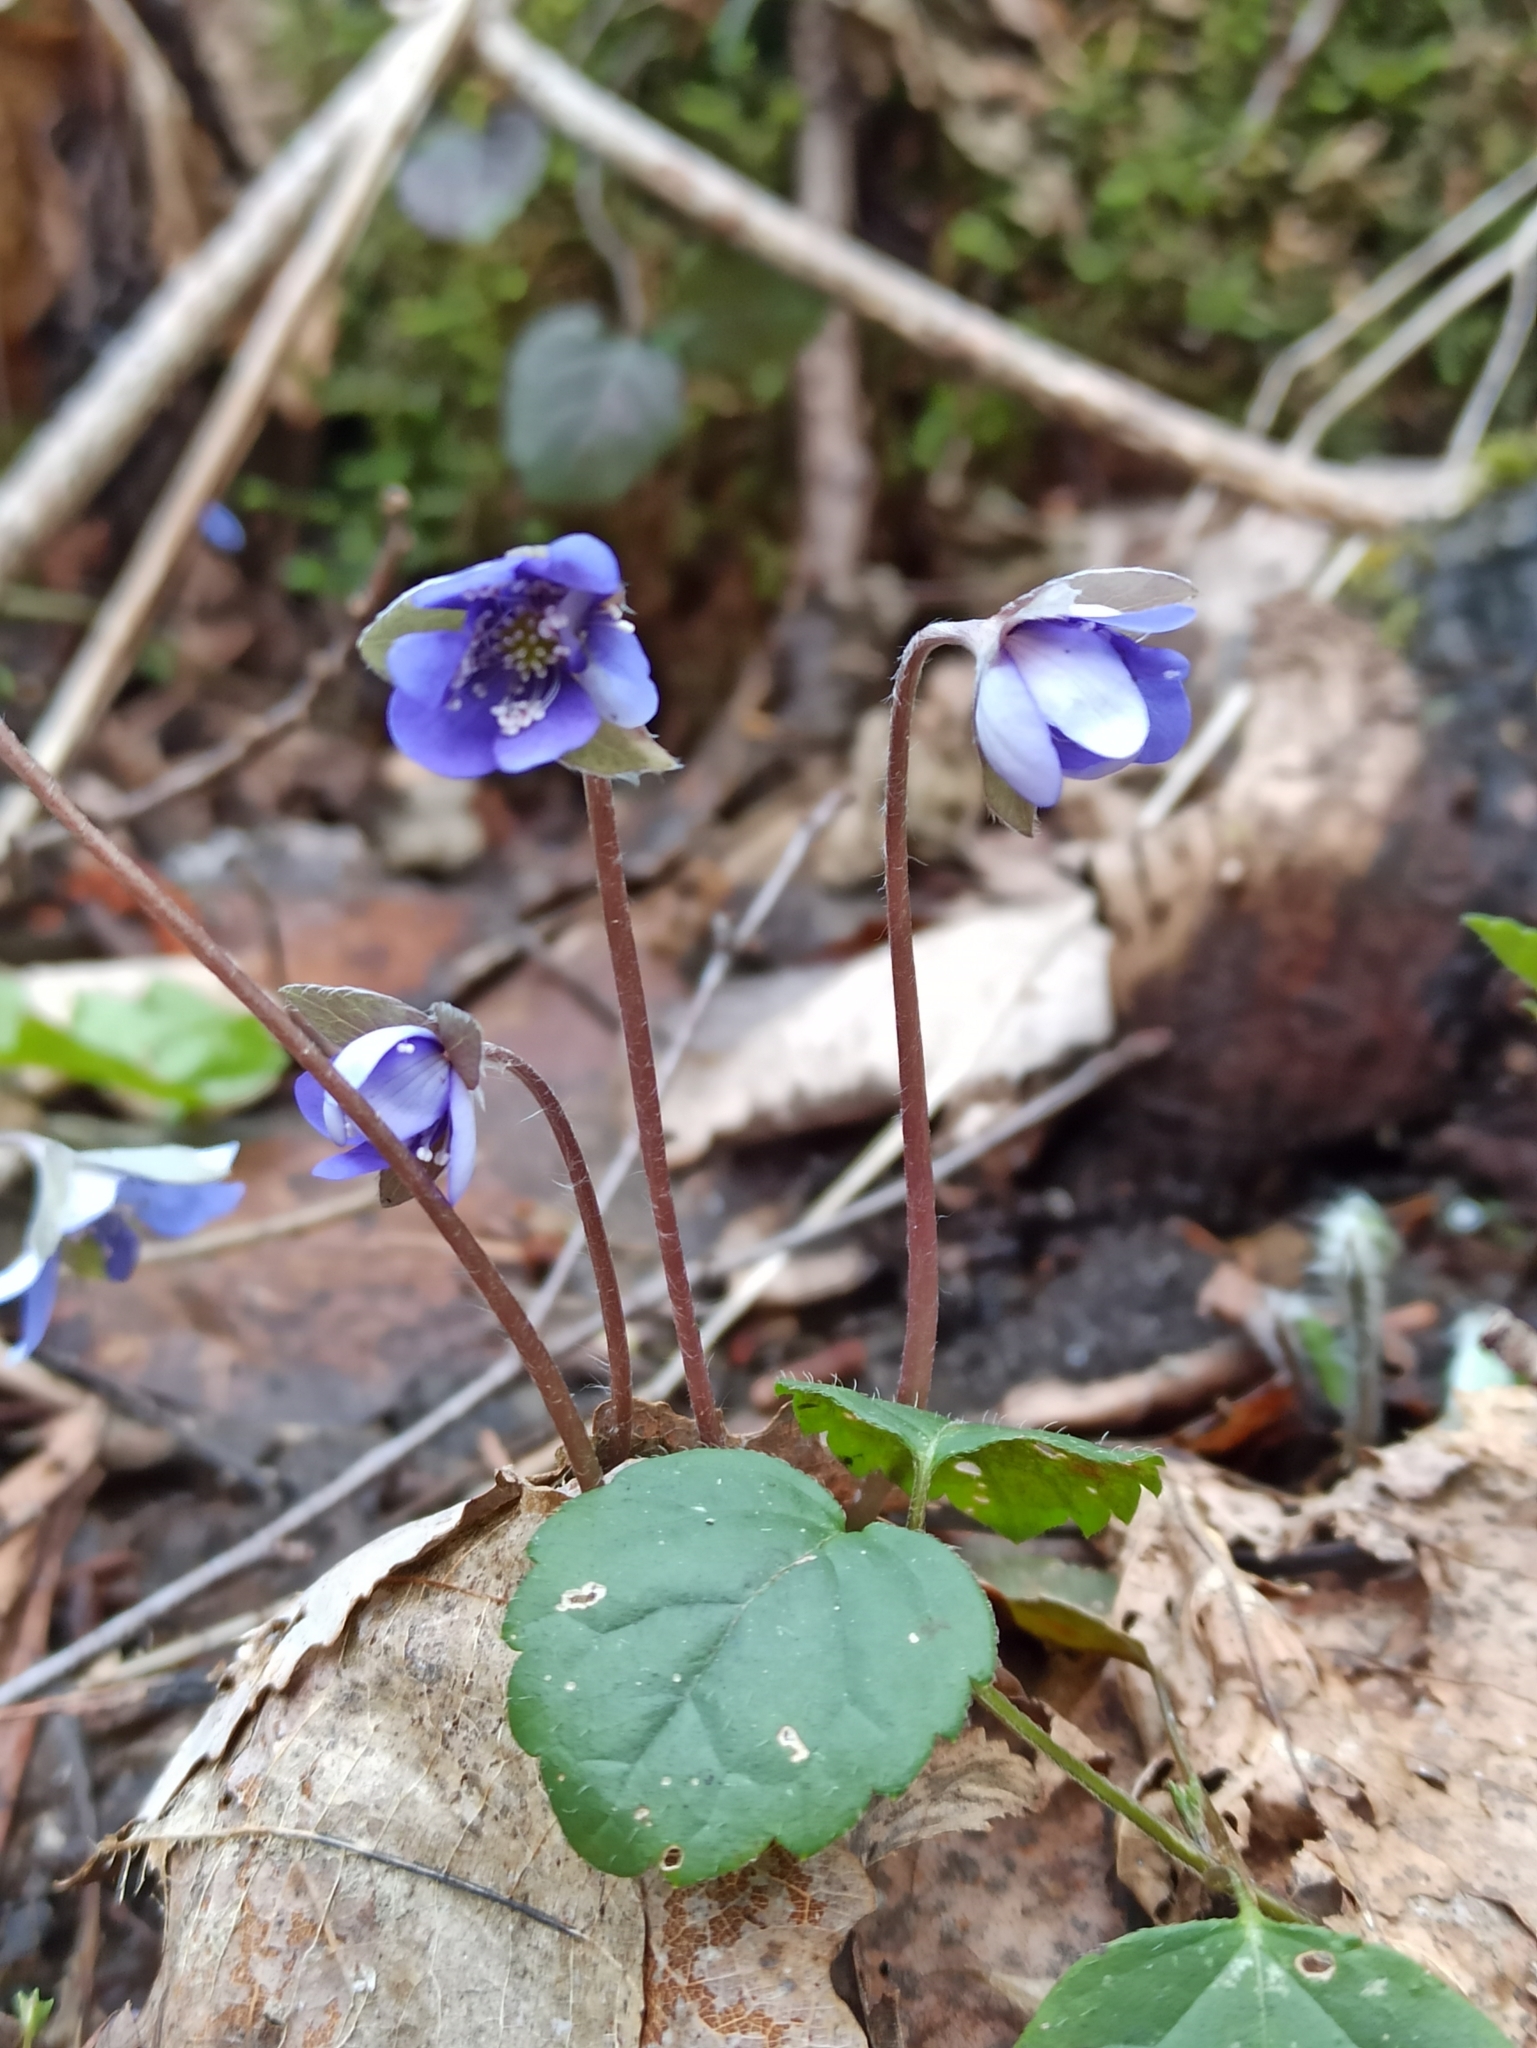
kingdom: Plantae
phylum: Tracheophyta
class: Magnoliopsida
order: Ranunculales
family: Ranunculaceae
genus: Hepatica
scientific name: Hepatica nobilis
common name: Liverleaf
